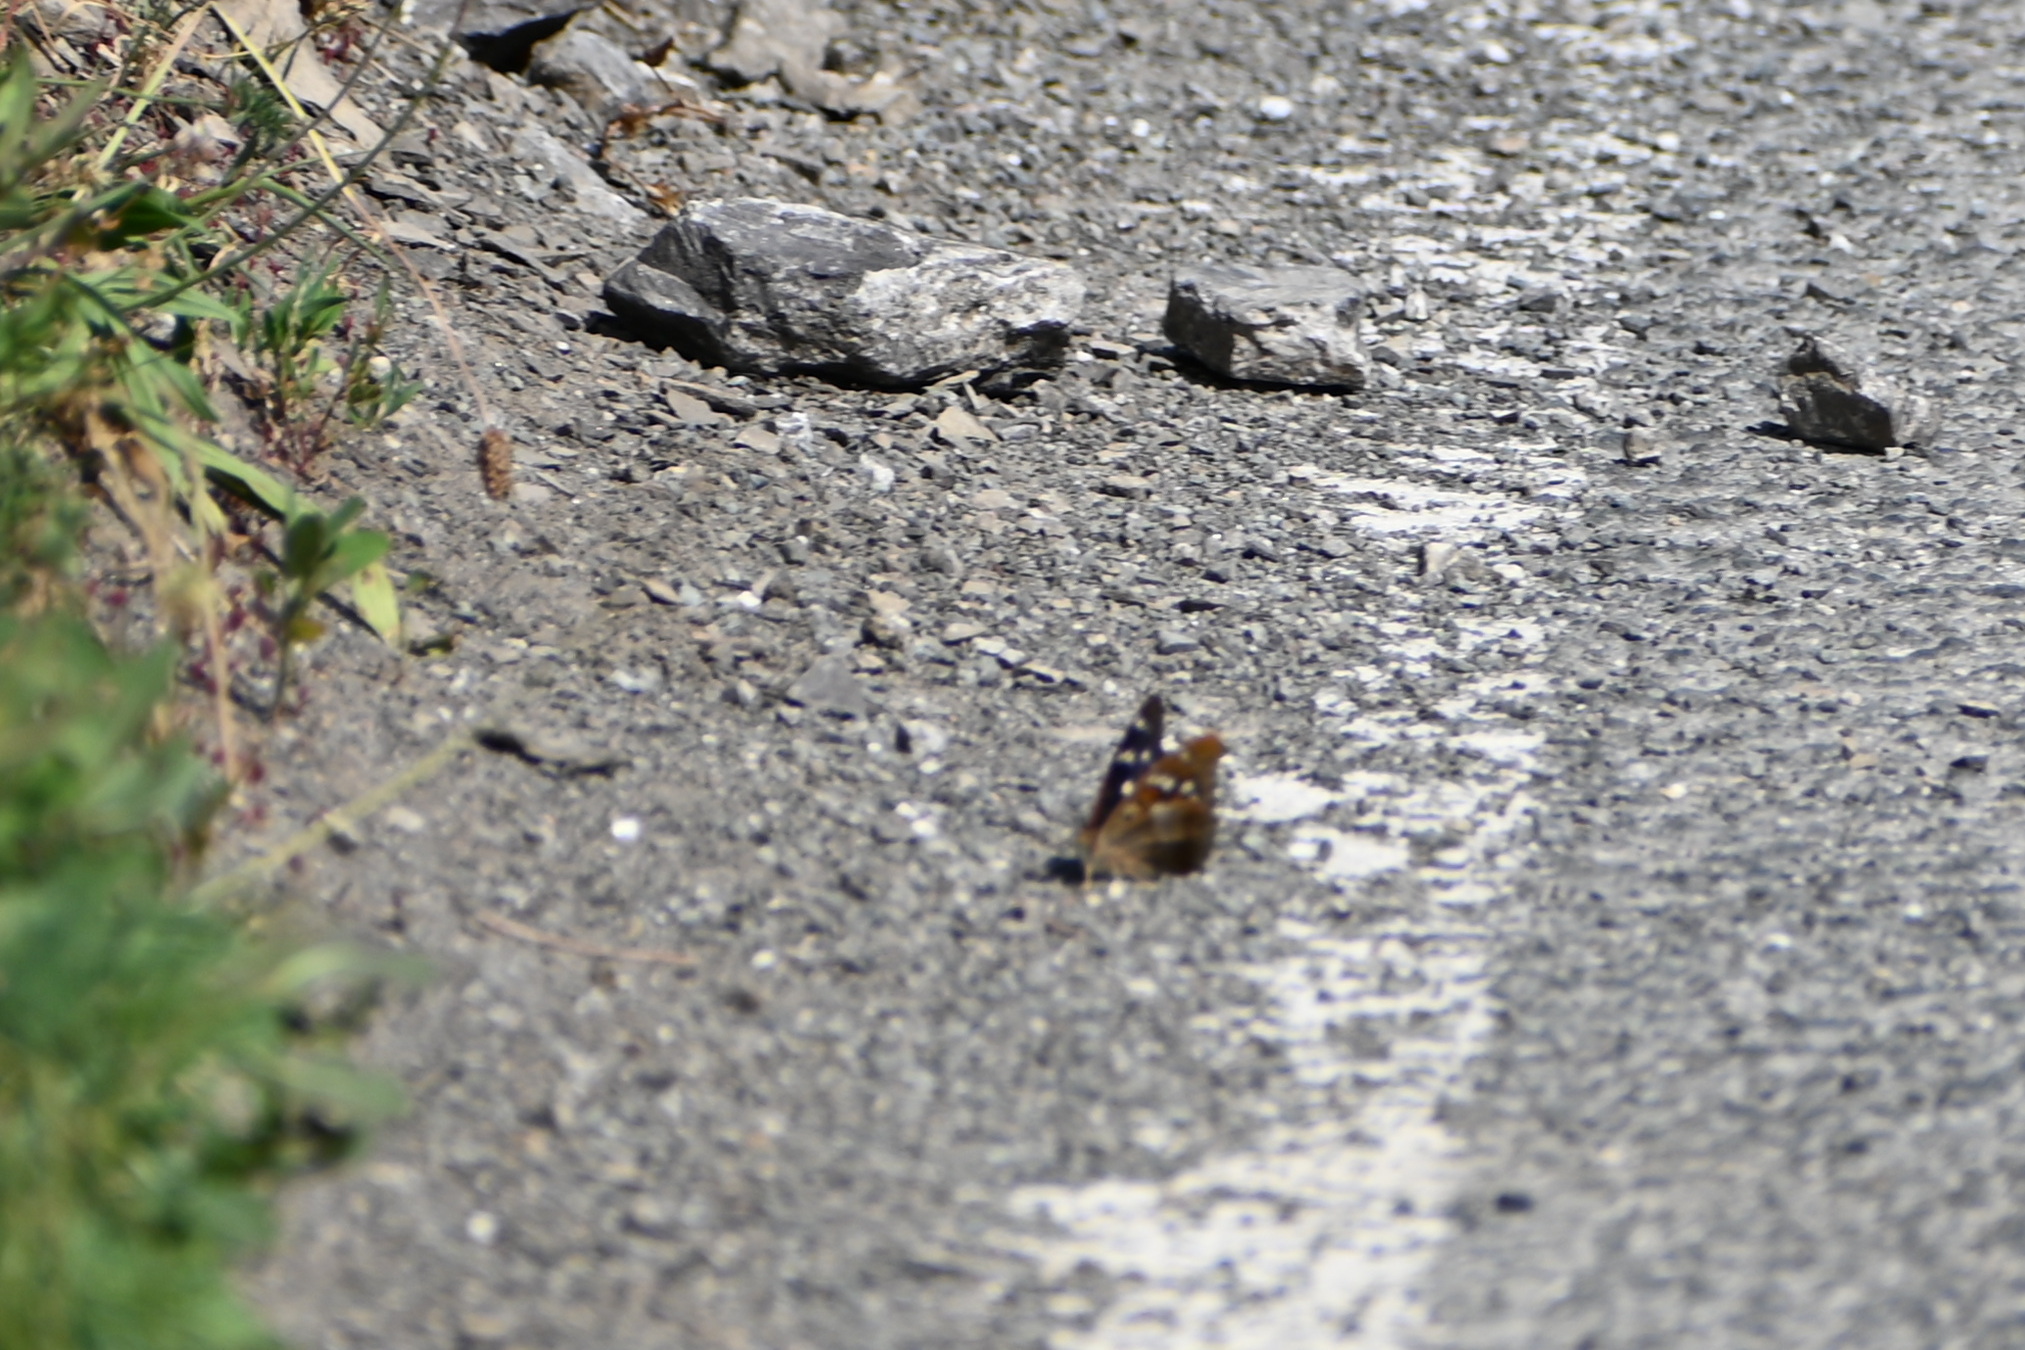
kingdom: Animalia
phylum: Arthropoda
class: Insecta
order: Lepidoptera
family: Nymphalidae
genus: Apatura
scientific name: Apatura ilia
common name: Lesser purple emperor
